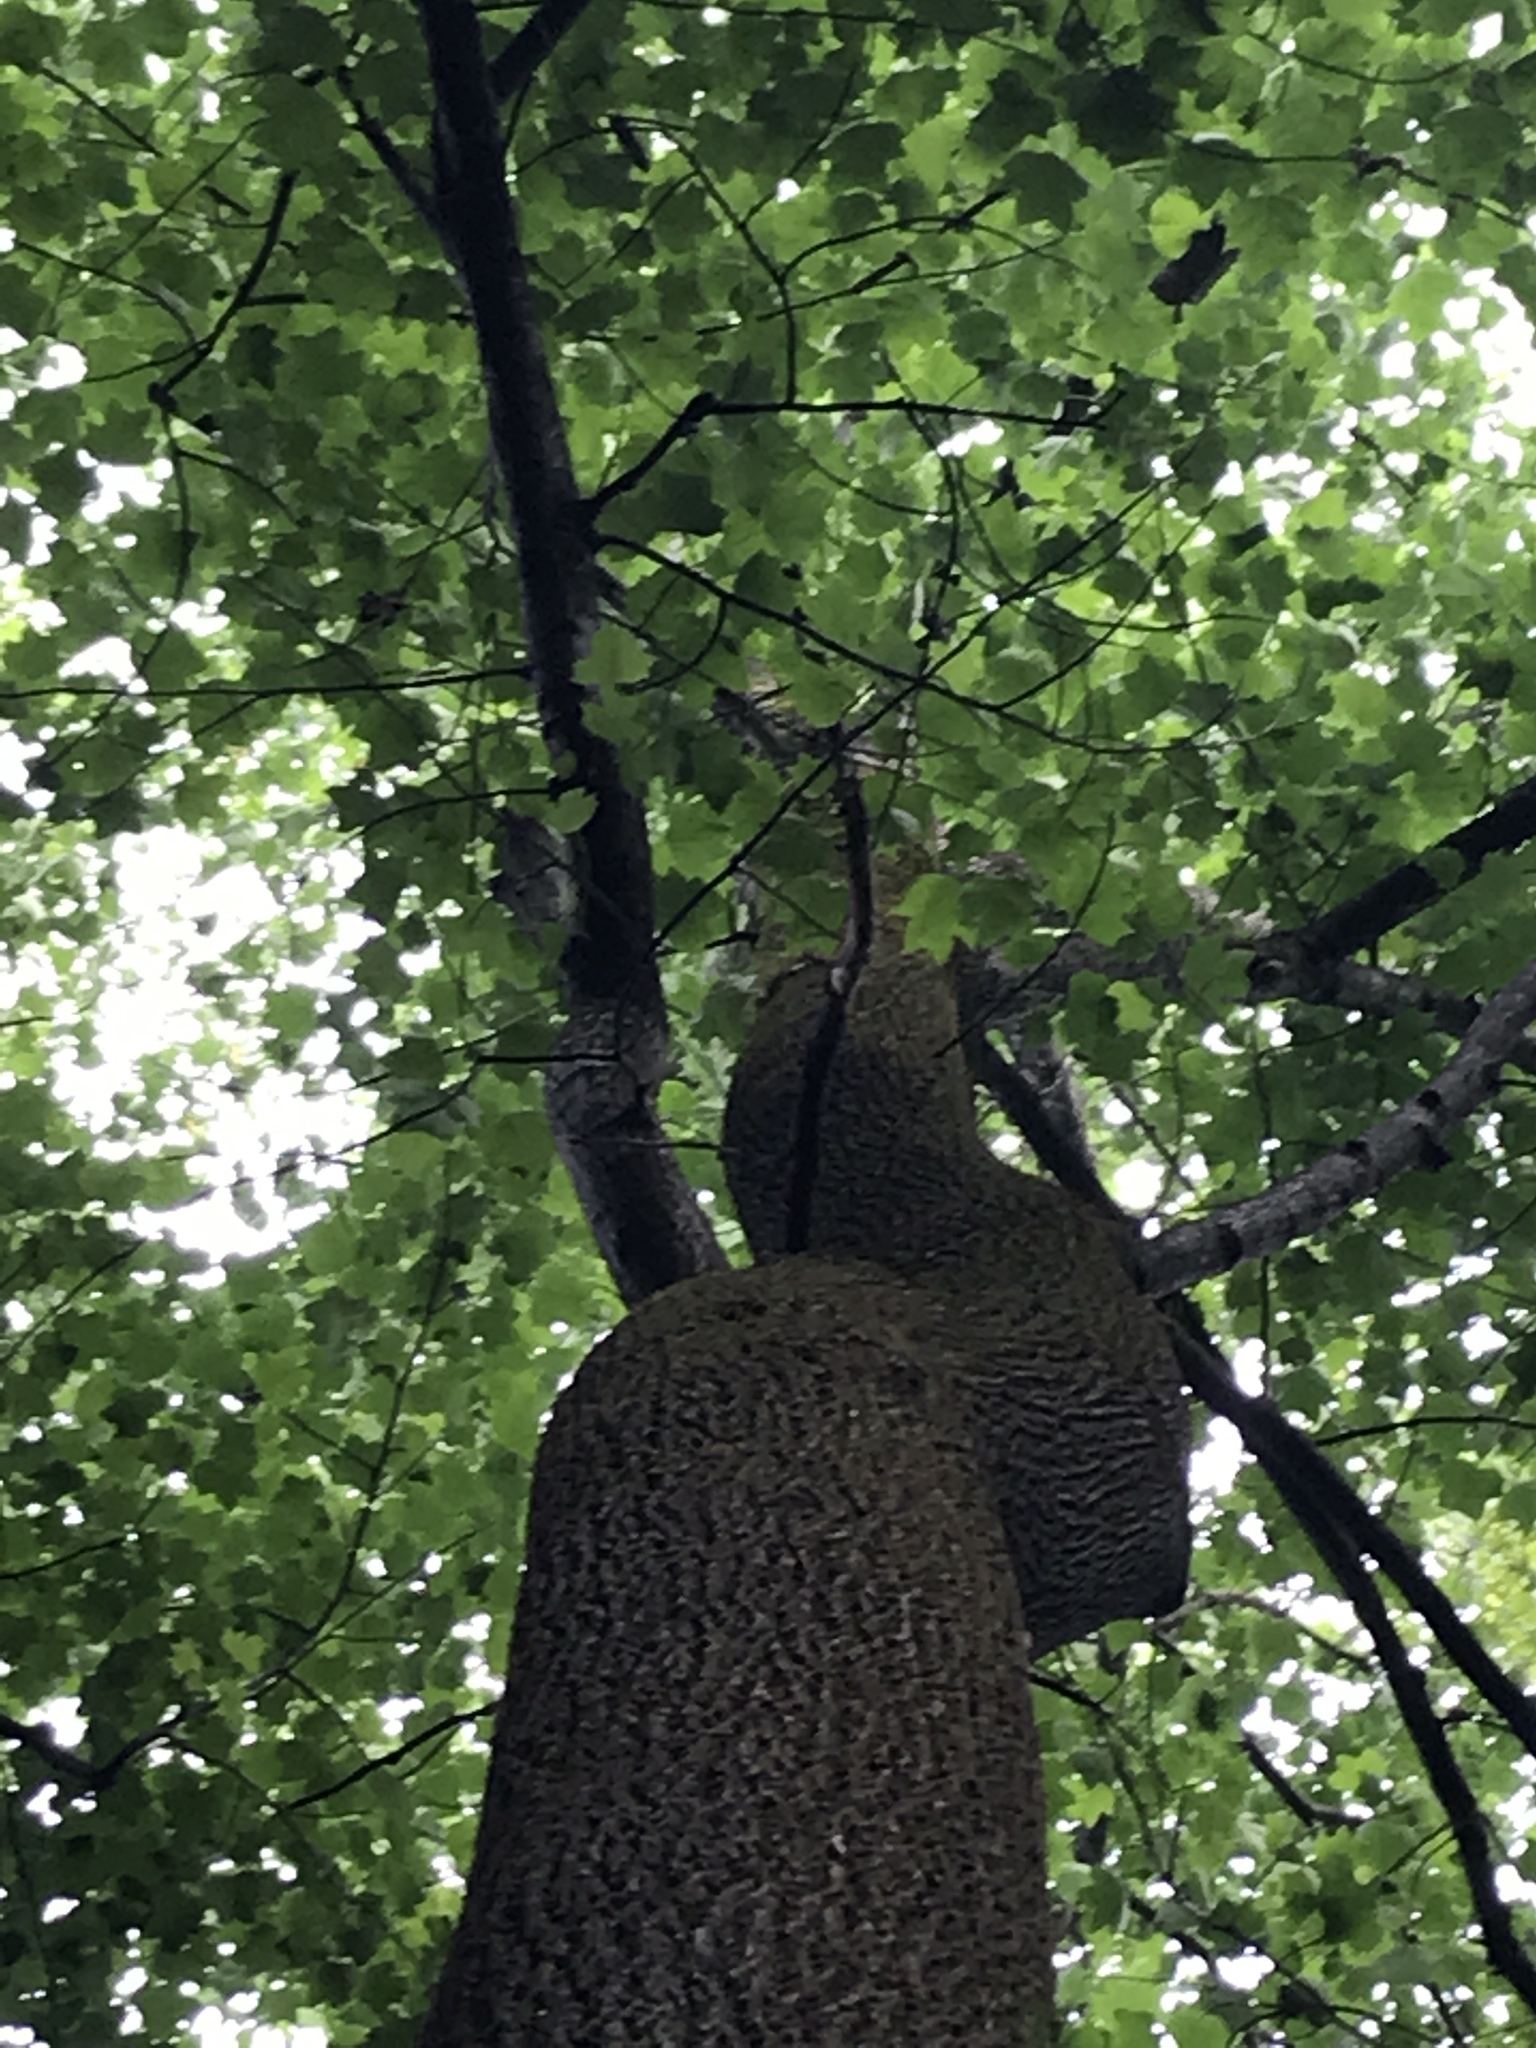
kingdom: Plantae
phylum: Tracheophyta
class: Magnoliopsida
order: Magnoliales
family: Magnoliaceae
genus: Liriodendron
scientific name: Liriodendron tulipifera
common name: Tulip tree
